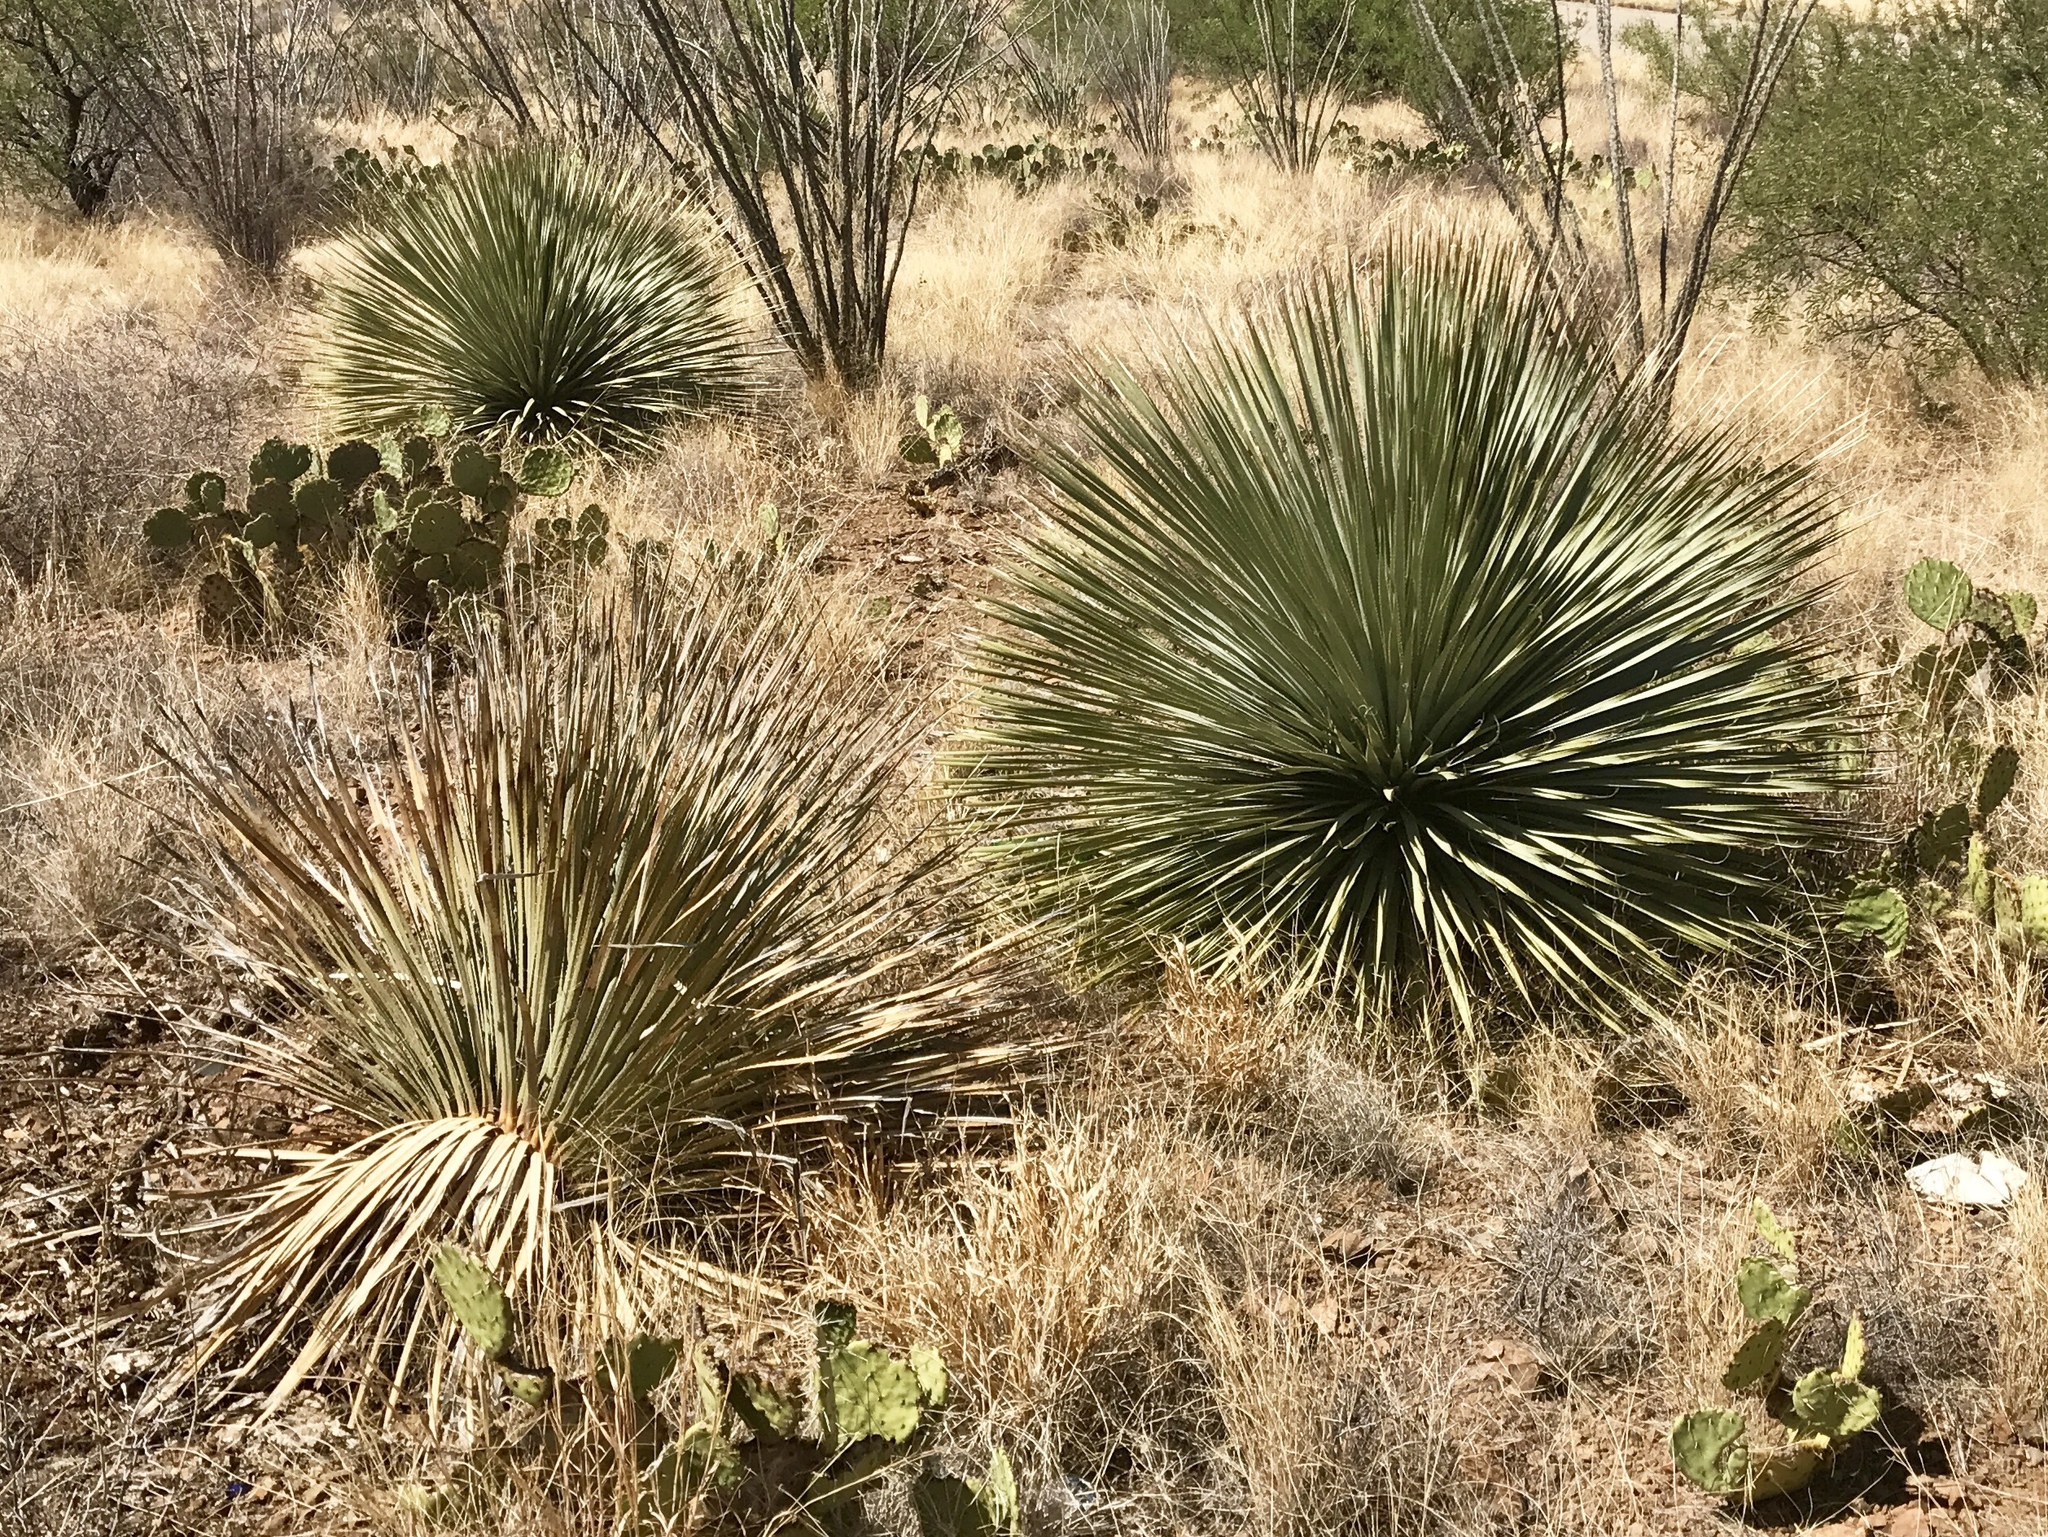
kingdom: Plantae
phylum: Tracheophyta
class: Liliopsida
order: Asparagales
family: Asparagaceae
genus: Dasylirion
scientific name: Dasylirion wheeleri
